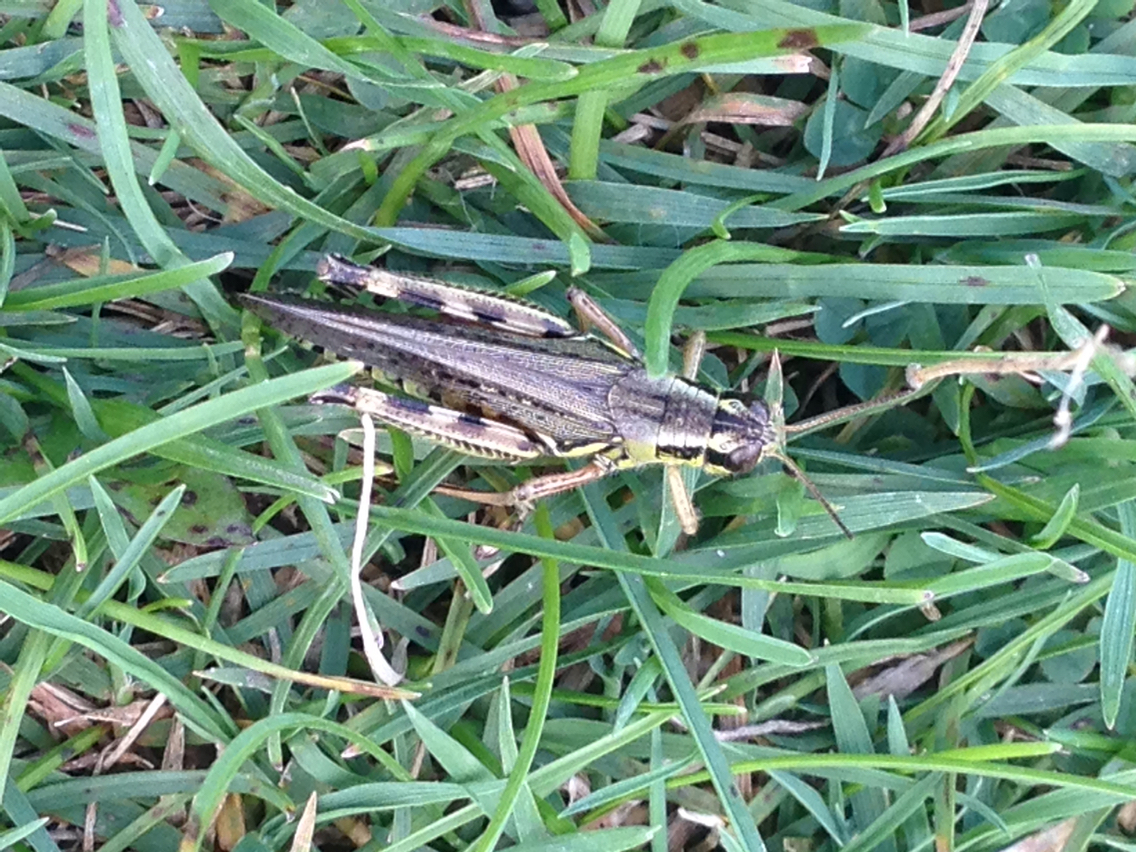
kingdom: Animalia
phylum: Arthropoda
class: Insecta
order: Orthoptera
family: Acrididae
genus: Melanoplus
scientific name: Melanoplus femurrubrum
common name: Red-legged grasshopper
